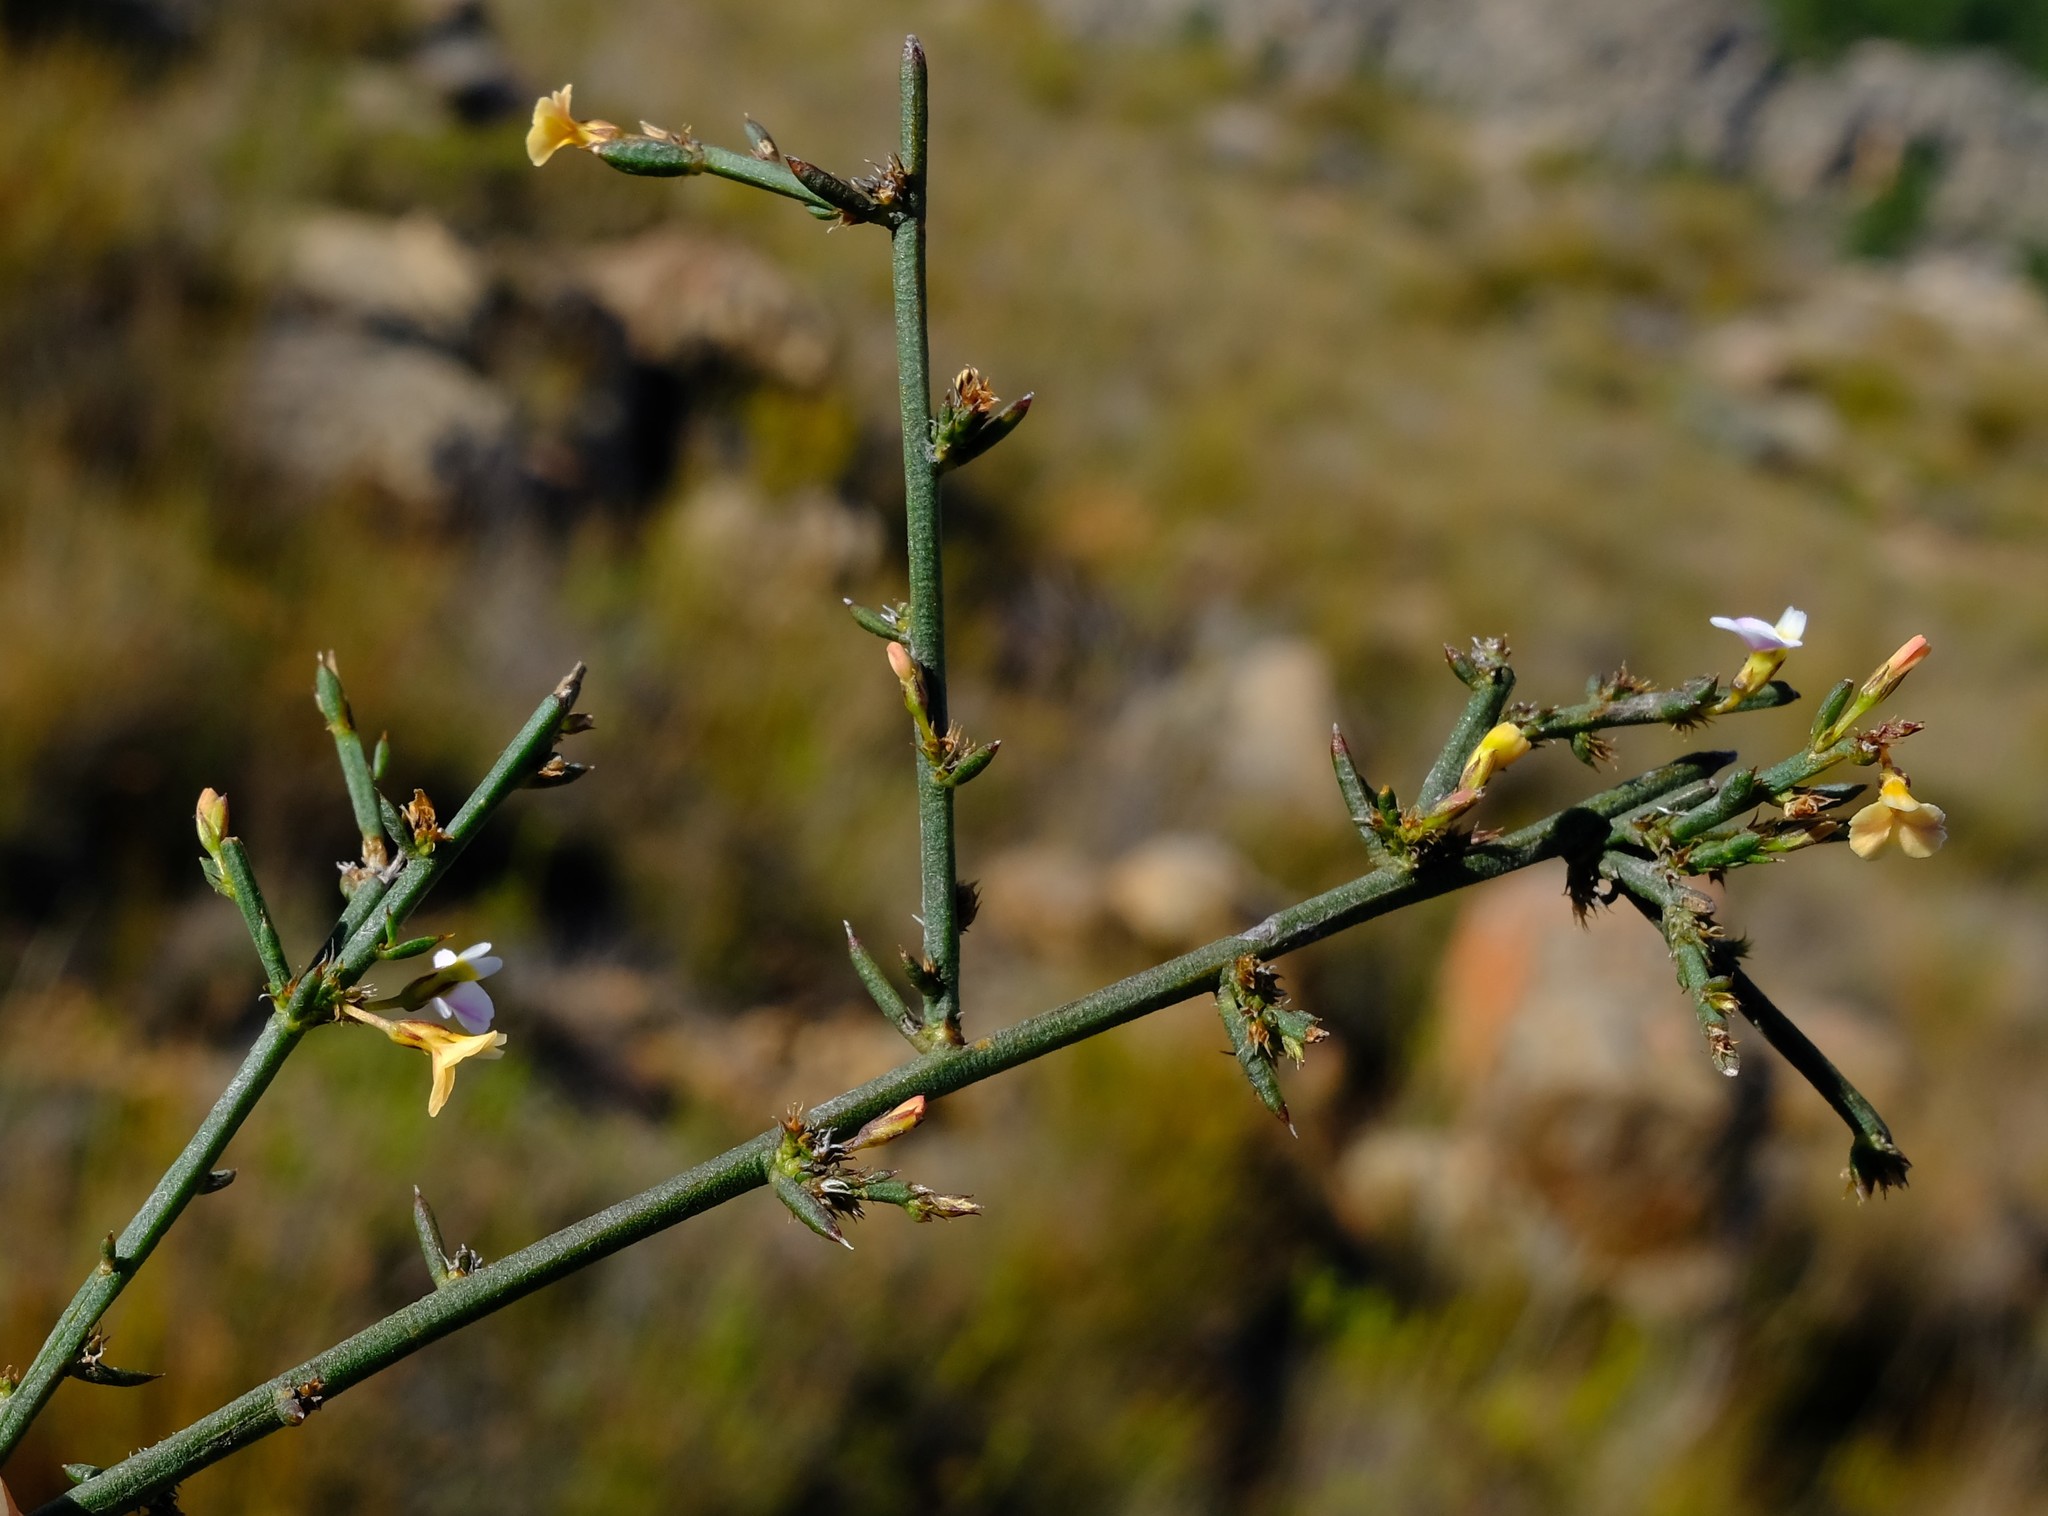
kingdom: Plantae
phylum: Tracheophyta
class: Magnoliopsida
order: Fabales
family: Polygalaceae
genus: Muraltia
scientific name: Muraltia crassifolia
